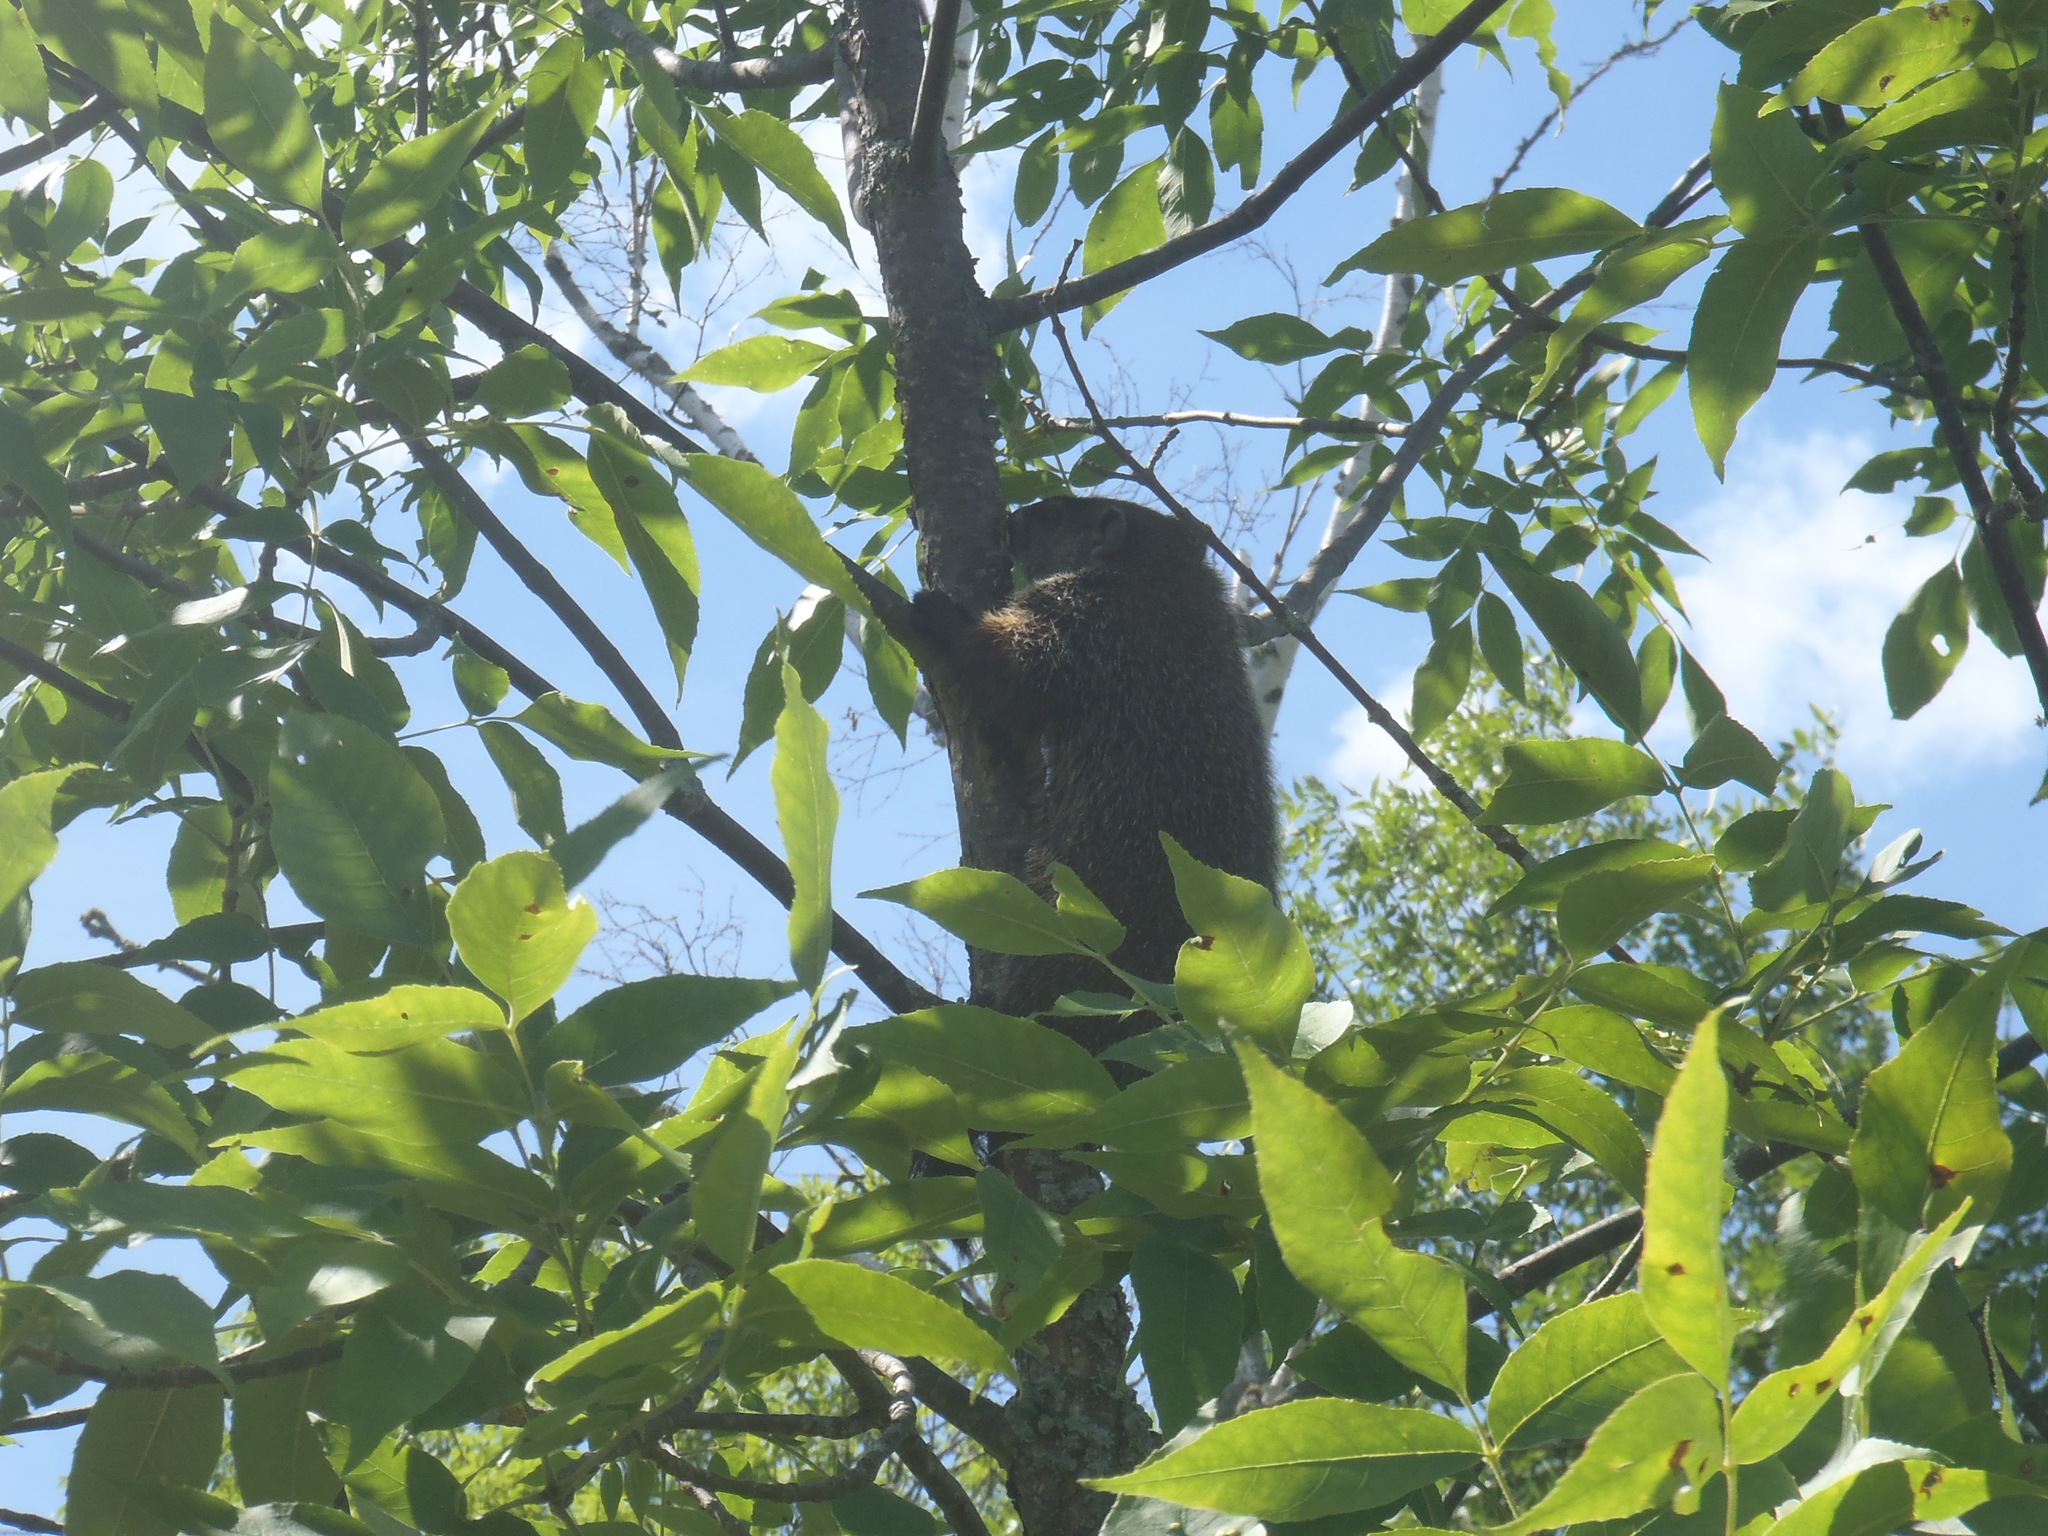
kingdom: Animalia
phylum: Chordata
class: Mammalia
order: Rodentia
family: Sciuridae
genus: Marmota
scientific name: Marmota monax
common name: Groundhog
